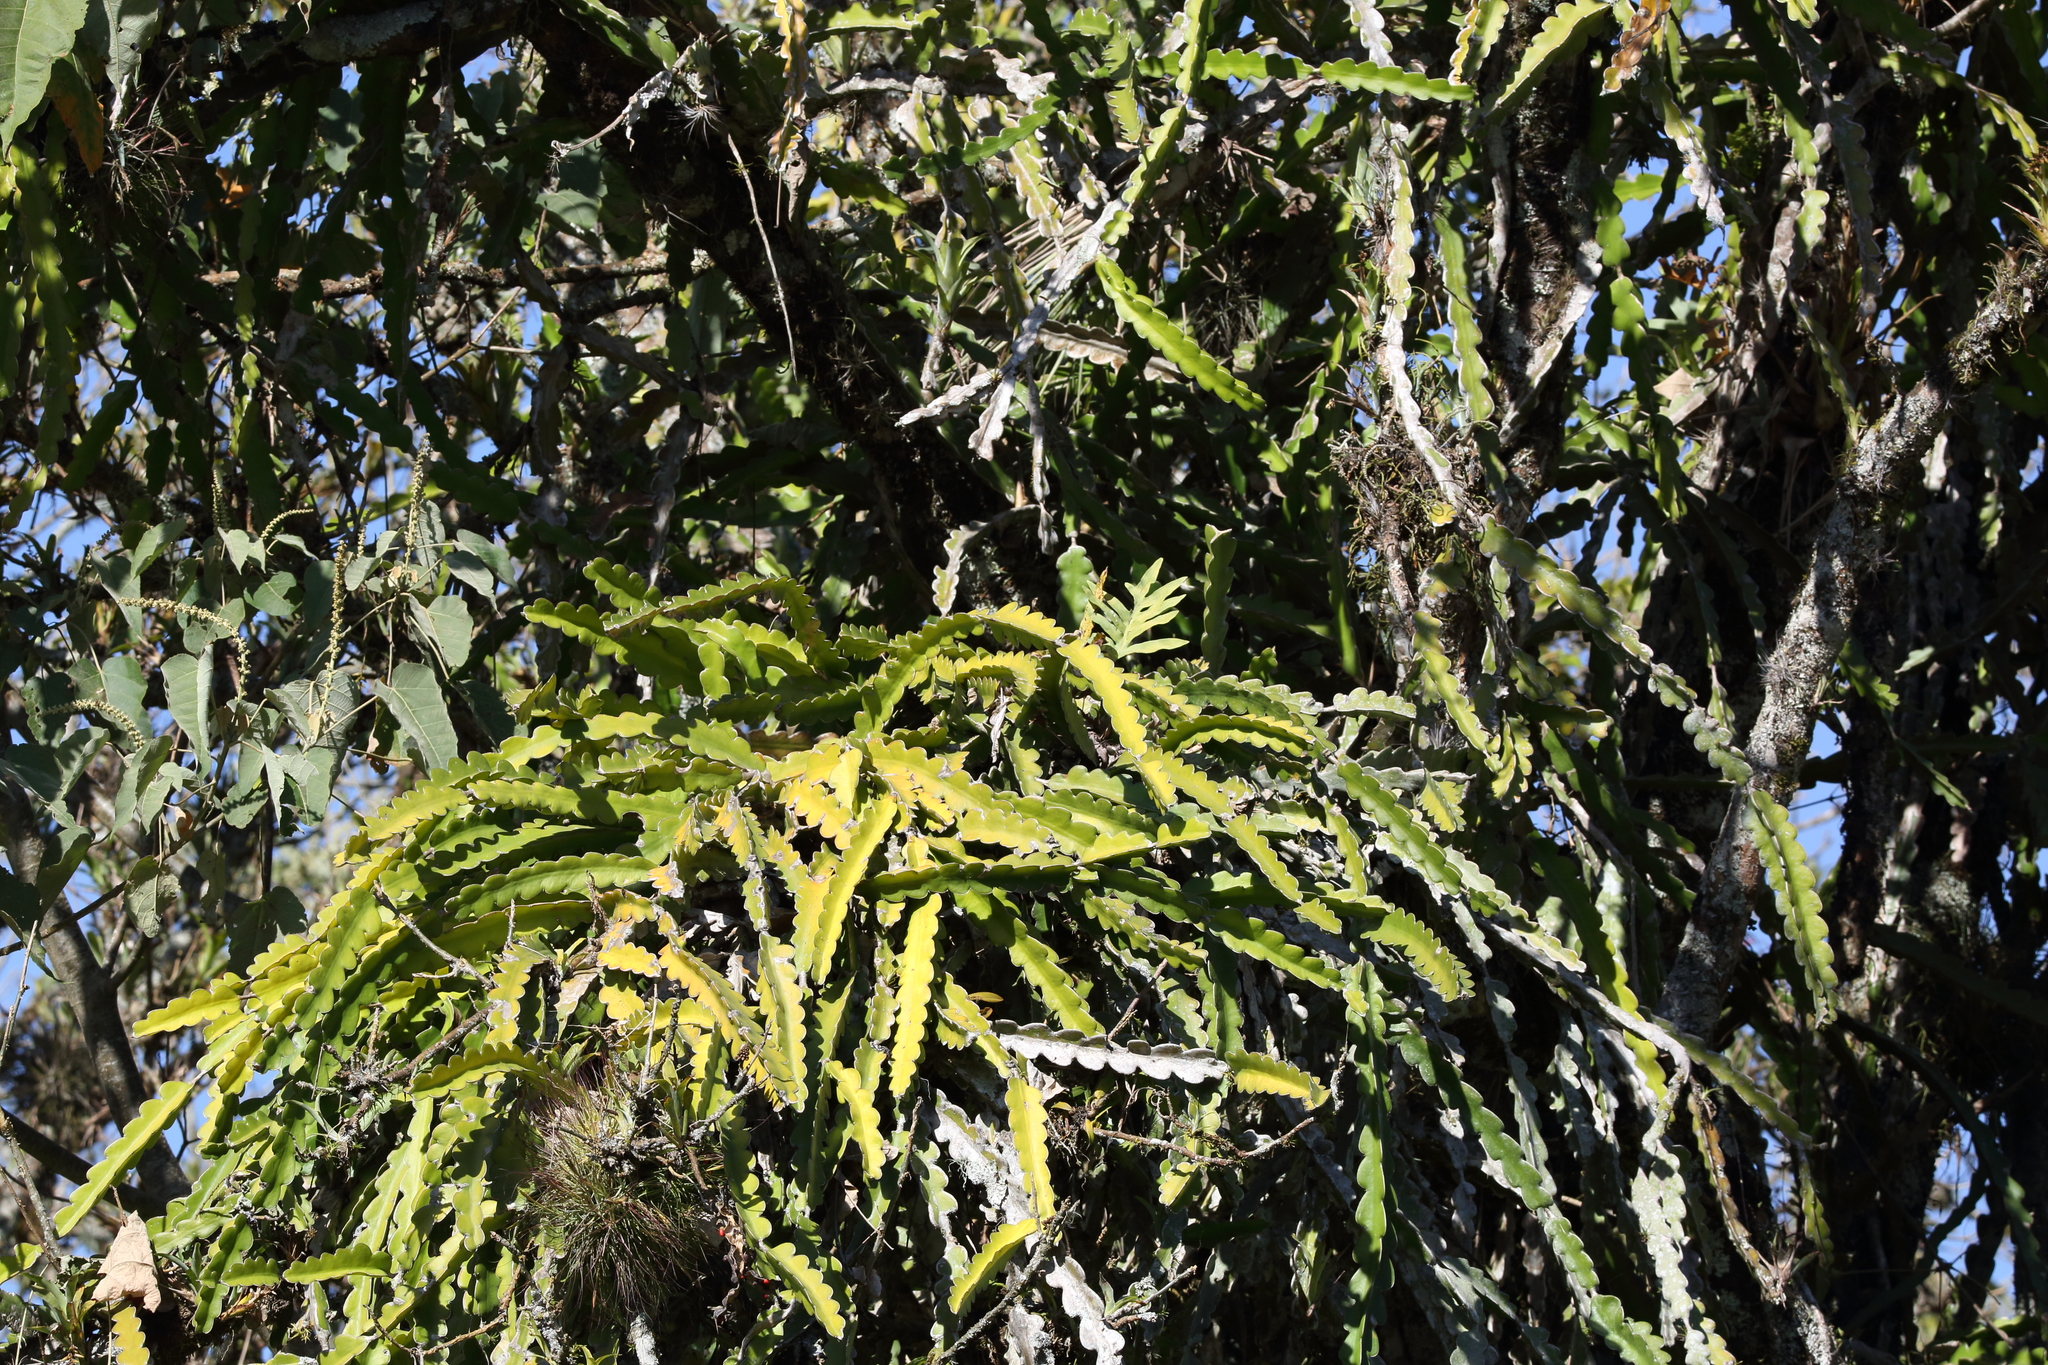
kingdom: Plantae
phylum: Tracheophyta
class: Magnoliopsida
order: Caryophyllales
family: Cactaceae
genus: Selenicereus
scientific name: Selenicereus undatus
